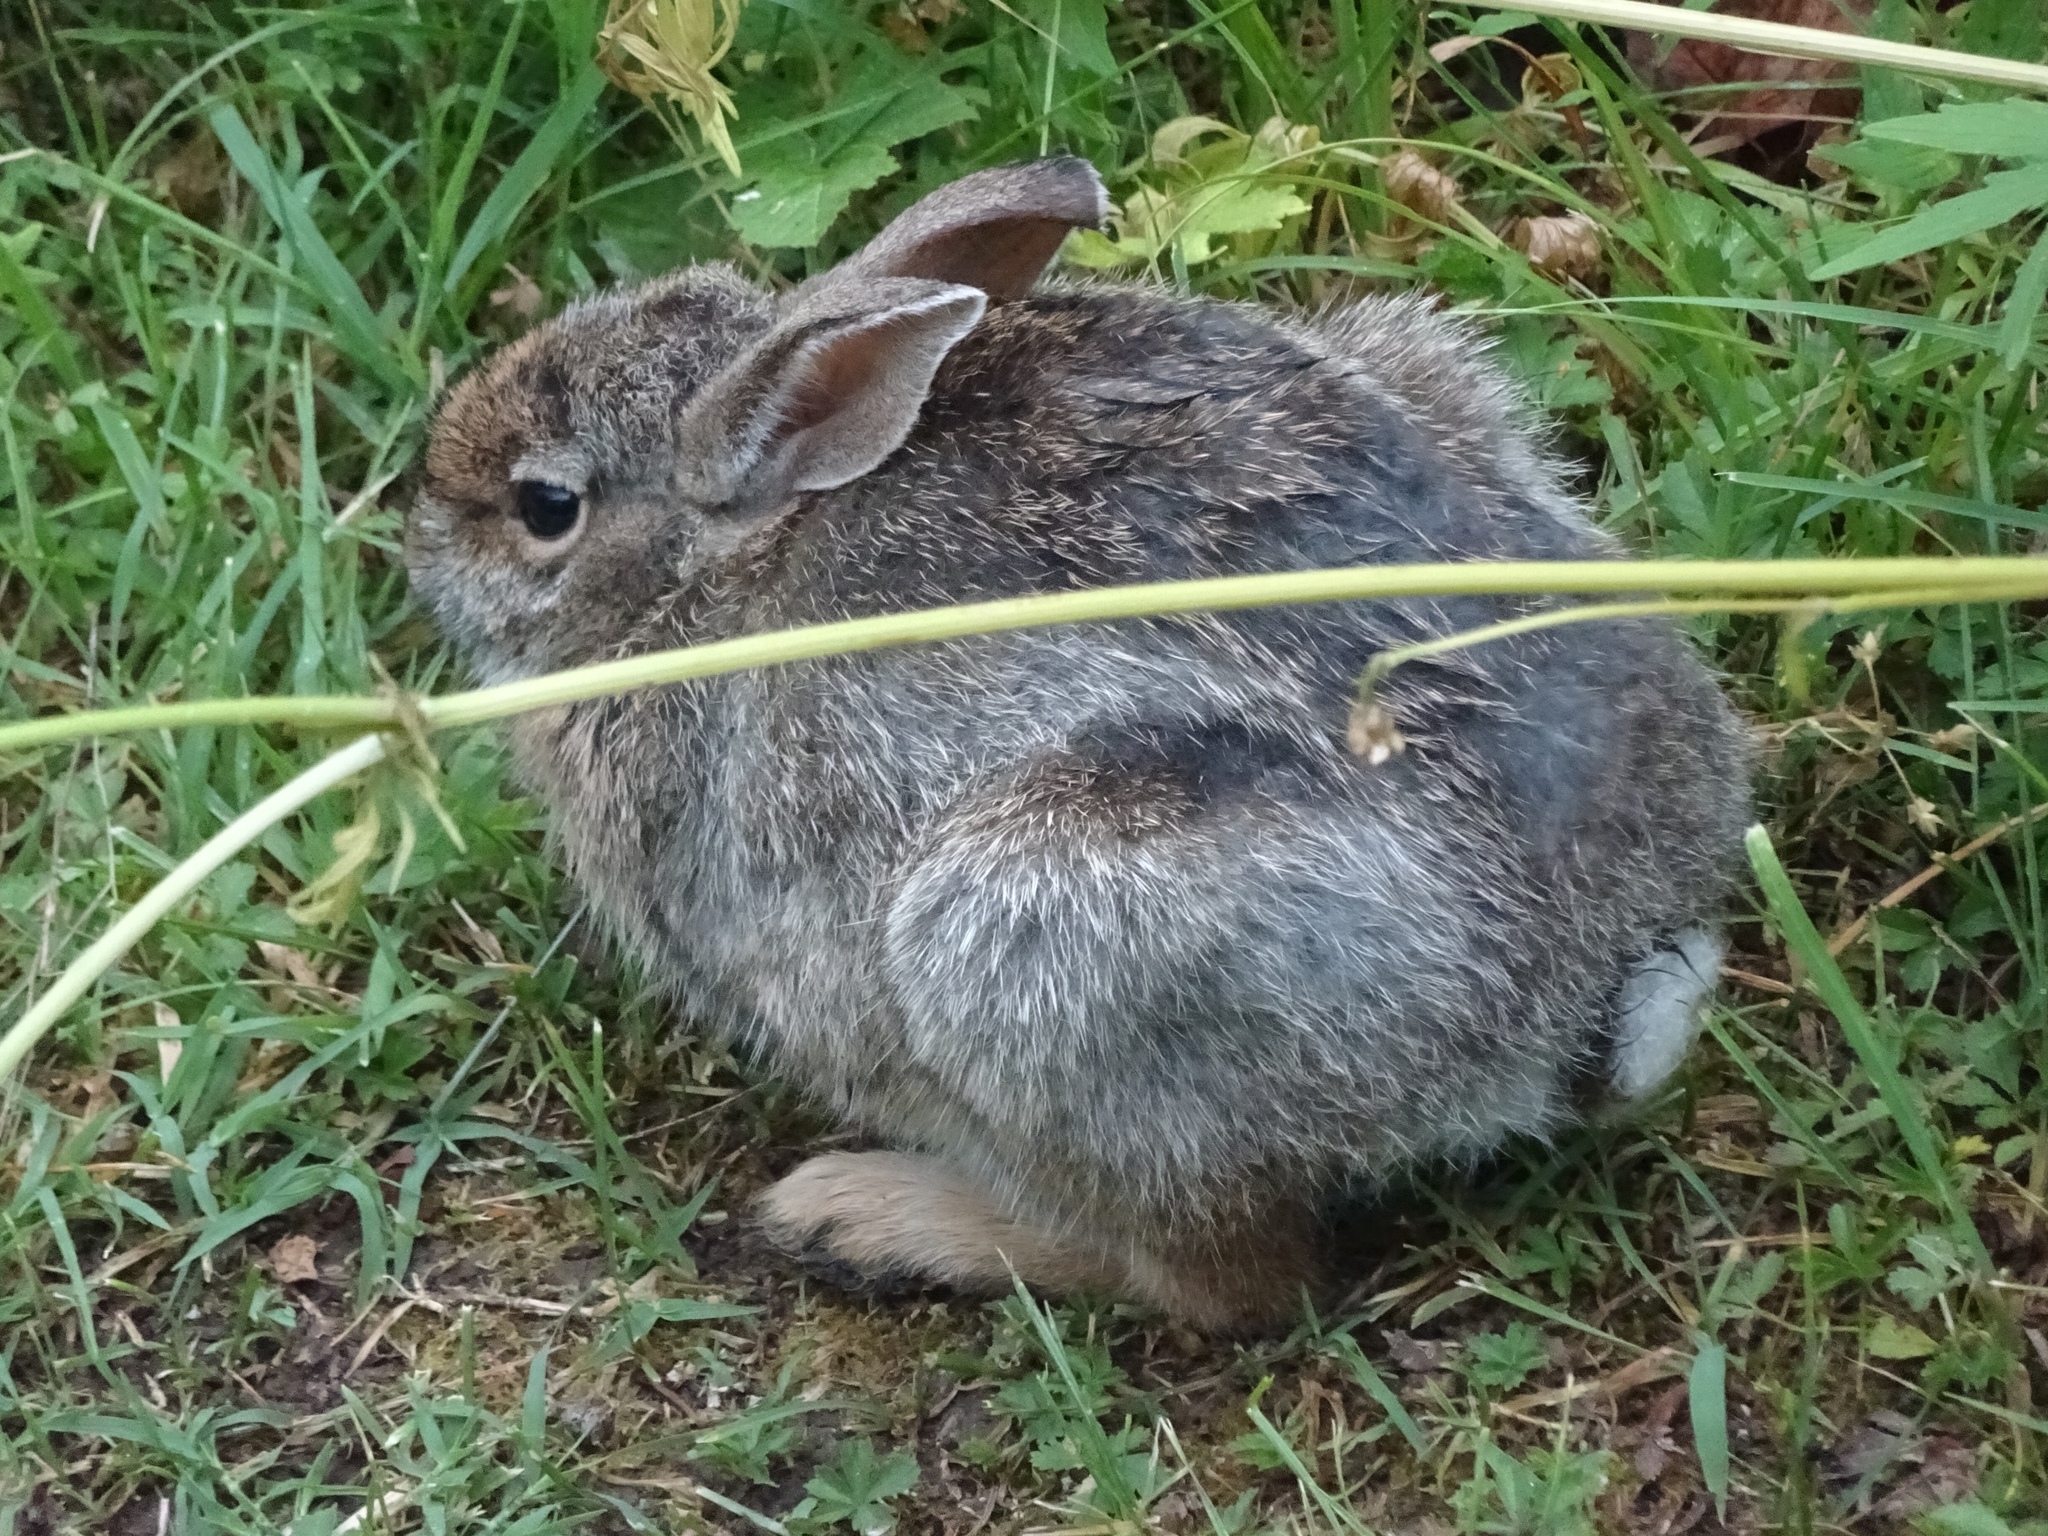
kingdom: Animalia
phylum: Chordata
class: Mammalia
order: Lagomorpha
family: Leporidae
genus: Sylvilagus
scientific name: Sylvilagus floridanus
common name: Eastern cottontail
